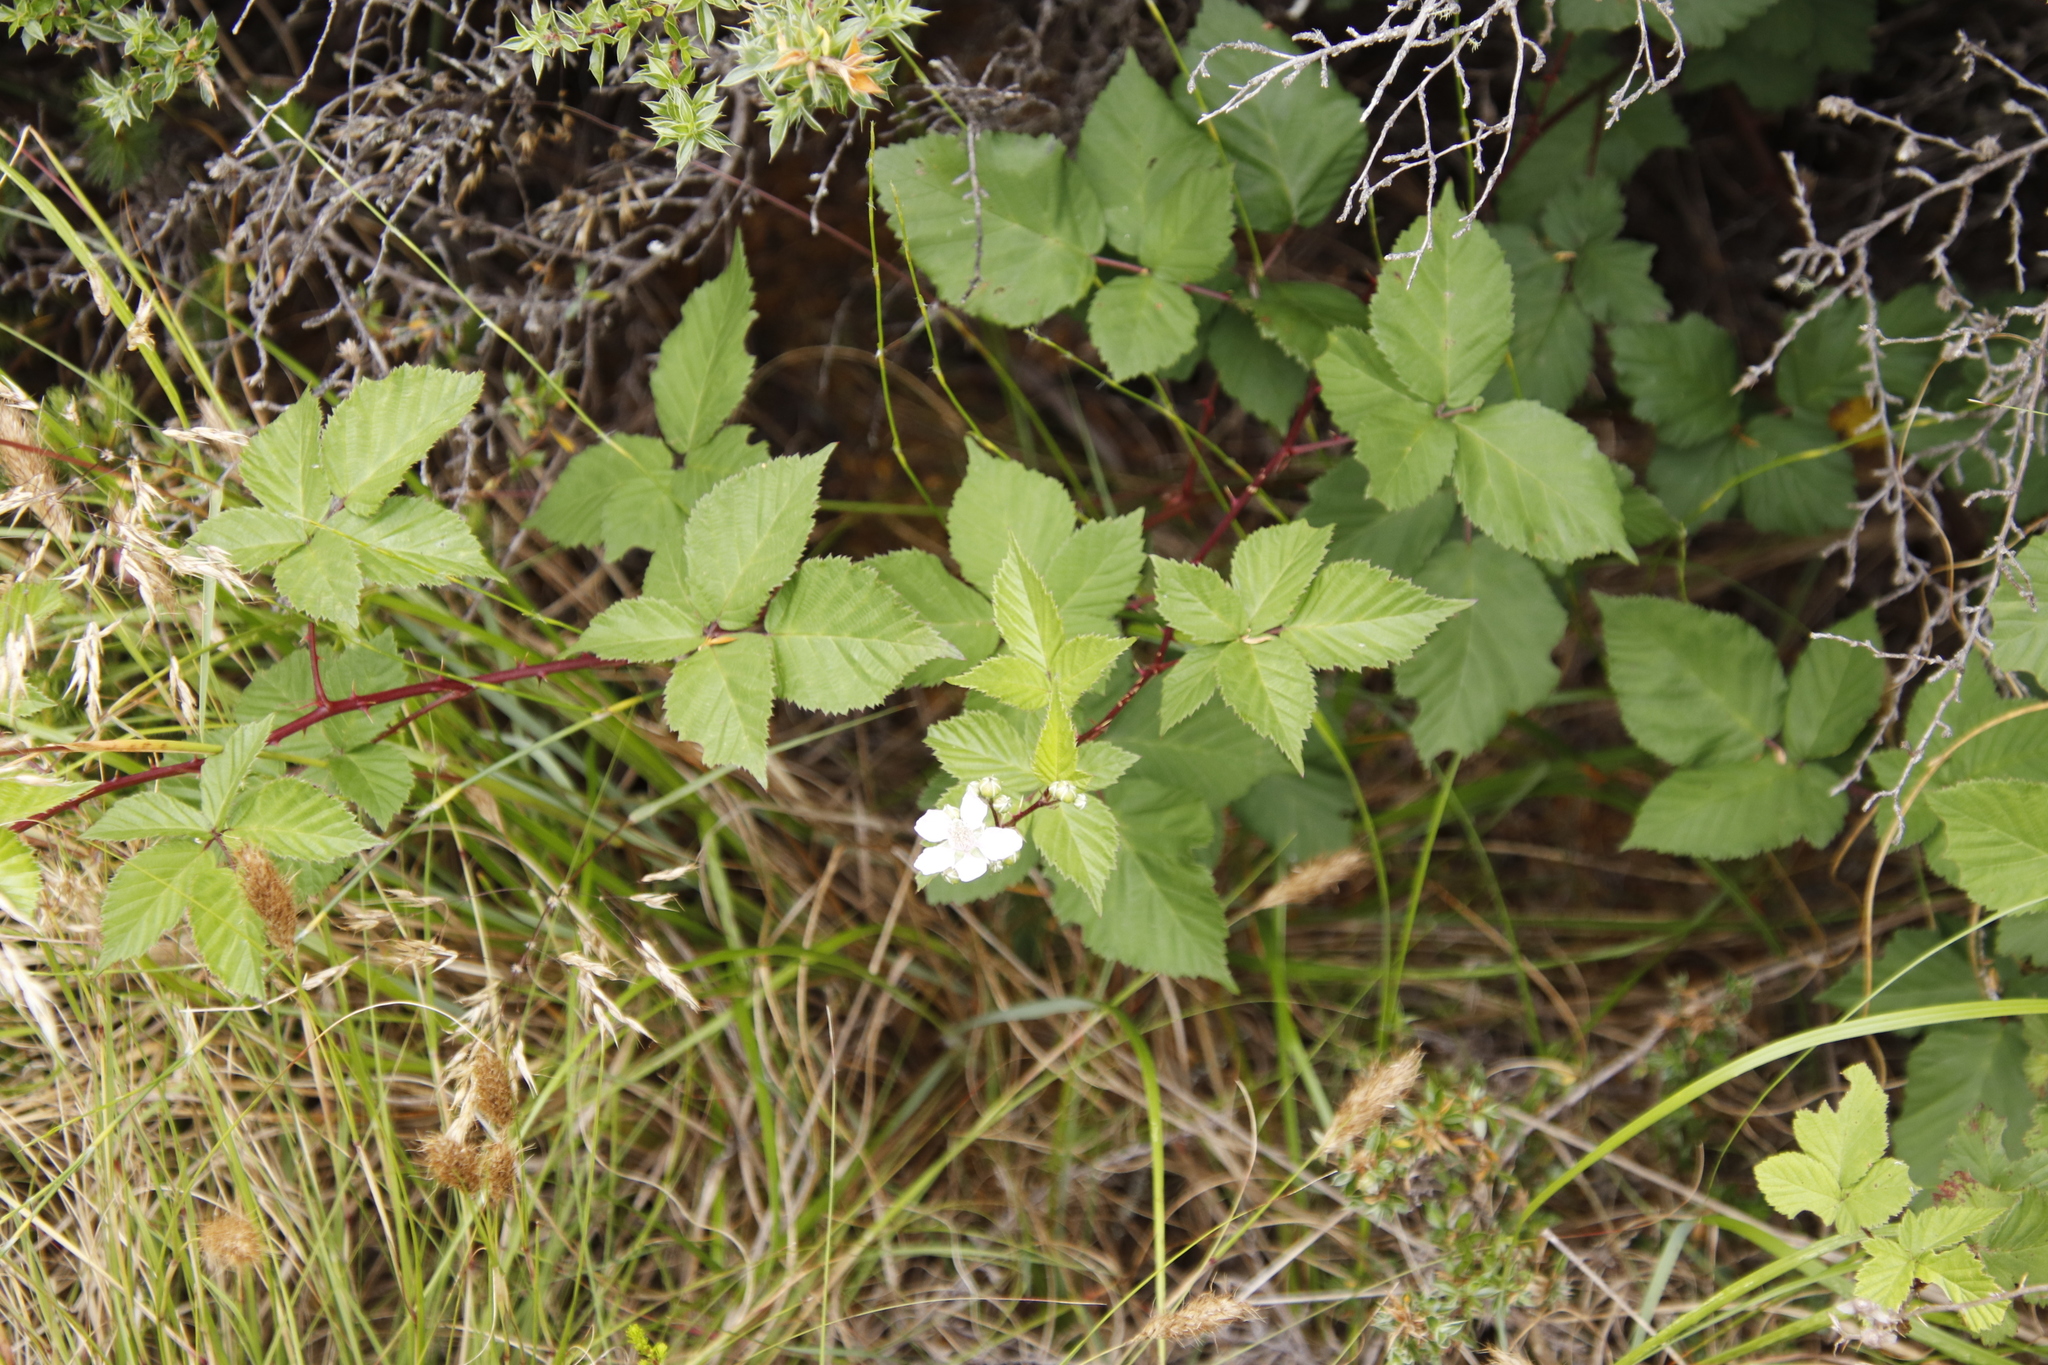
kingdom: Plantae
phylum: Tracheophyta
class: Magnoliopsida
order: Rosales
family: Rosaceae
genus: Rubus
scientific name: Rubus affinis
